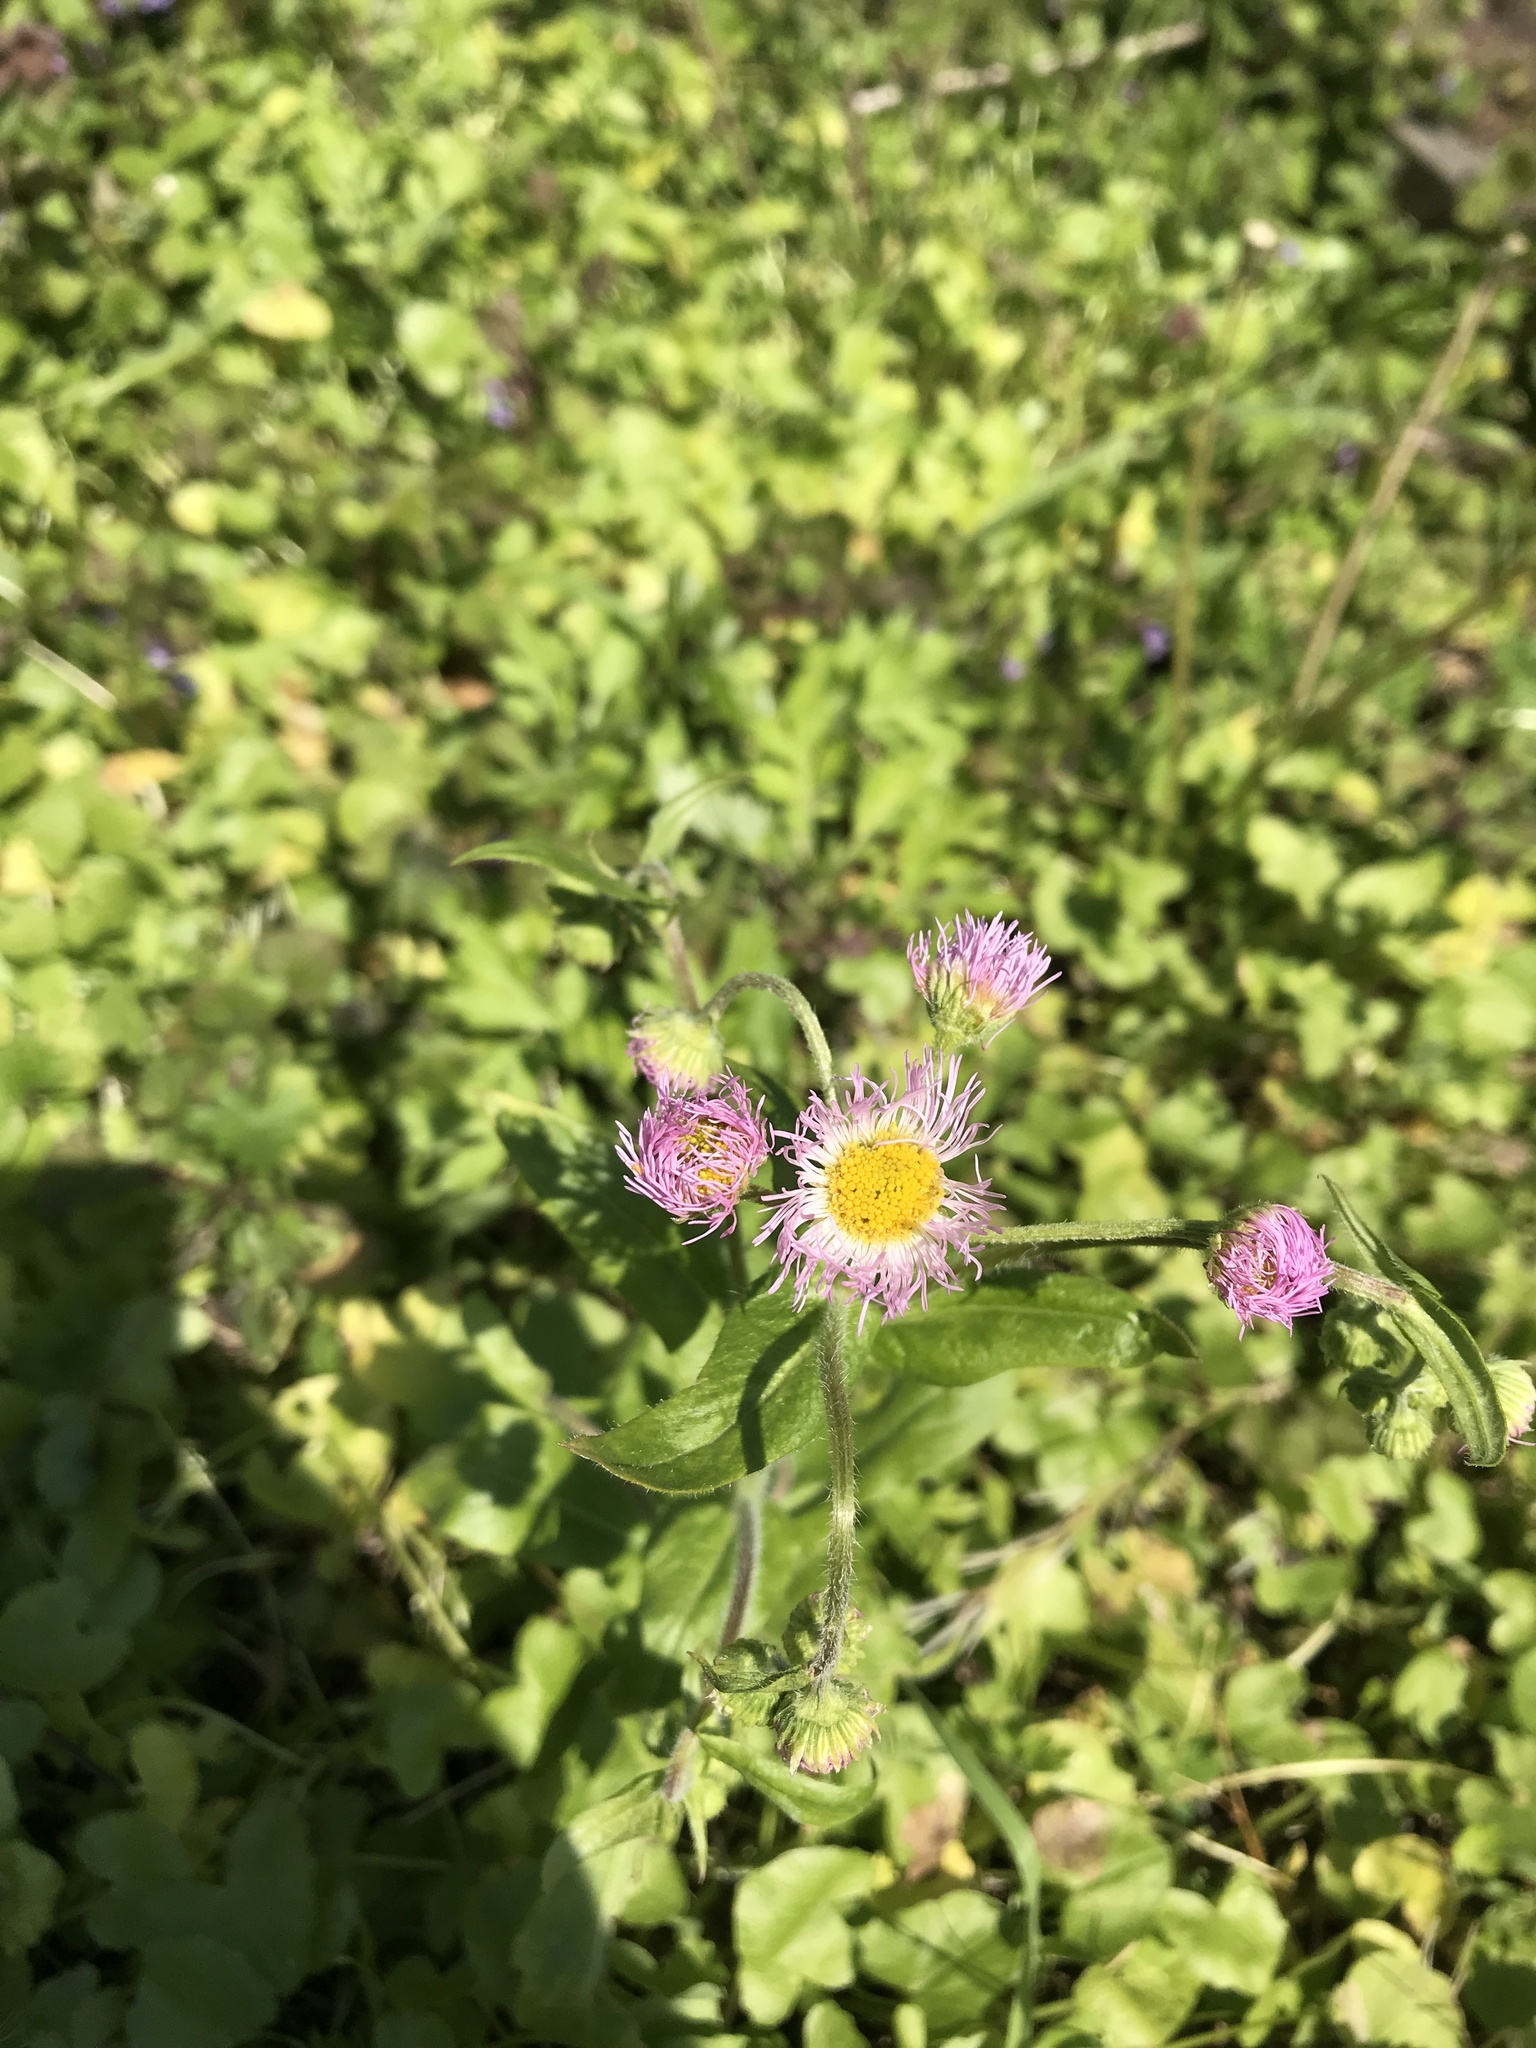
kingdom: Plantae
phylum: Tracheophyta
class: Magnoliopsida
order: Asterales
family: Asteraceae
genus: Erigeron
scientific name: Erigeron philadelphicus
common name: Robin's-plantain
